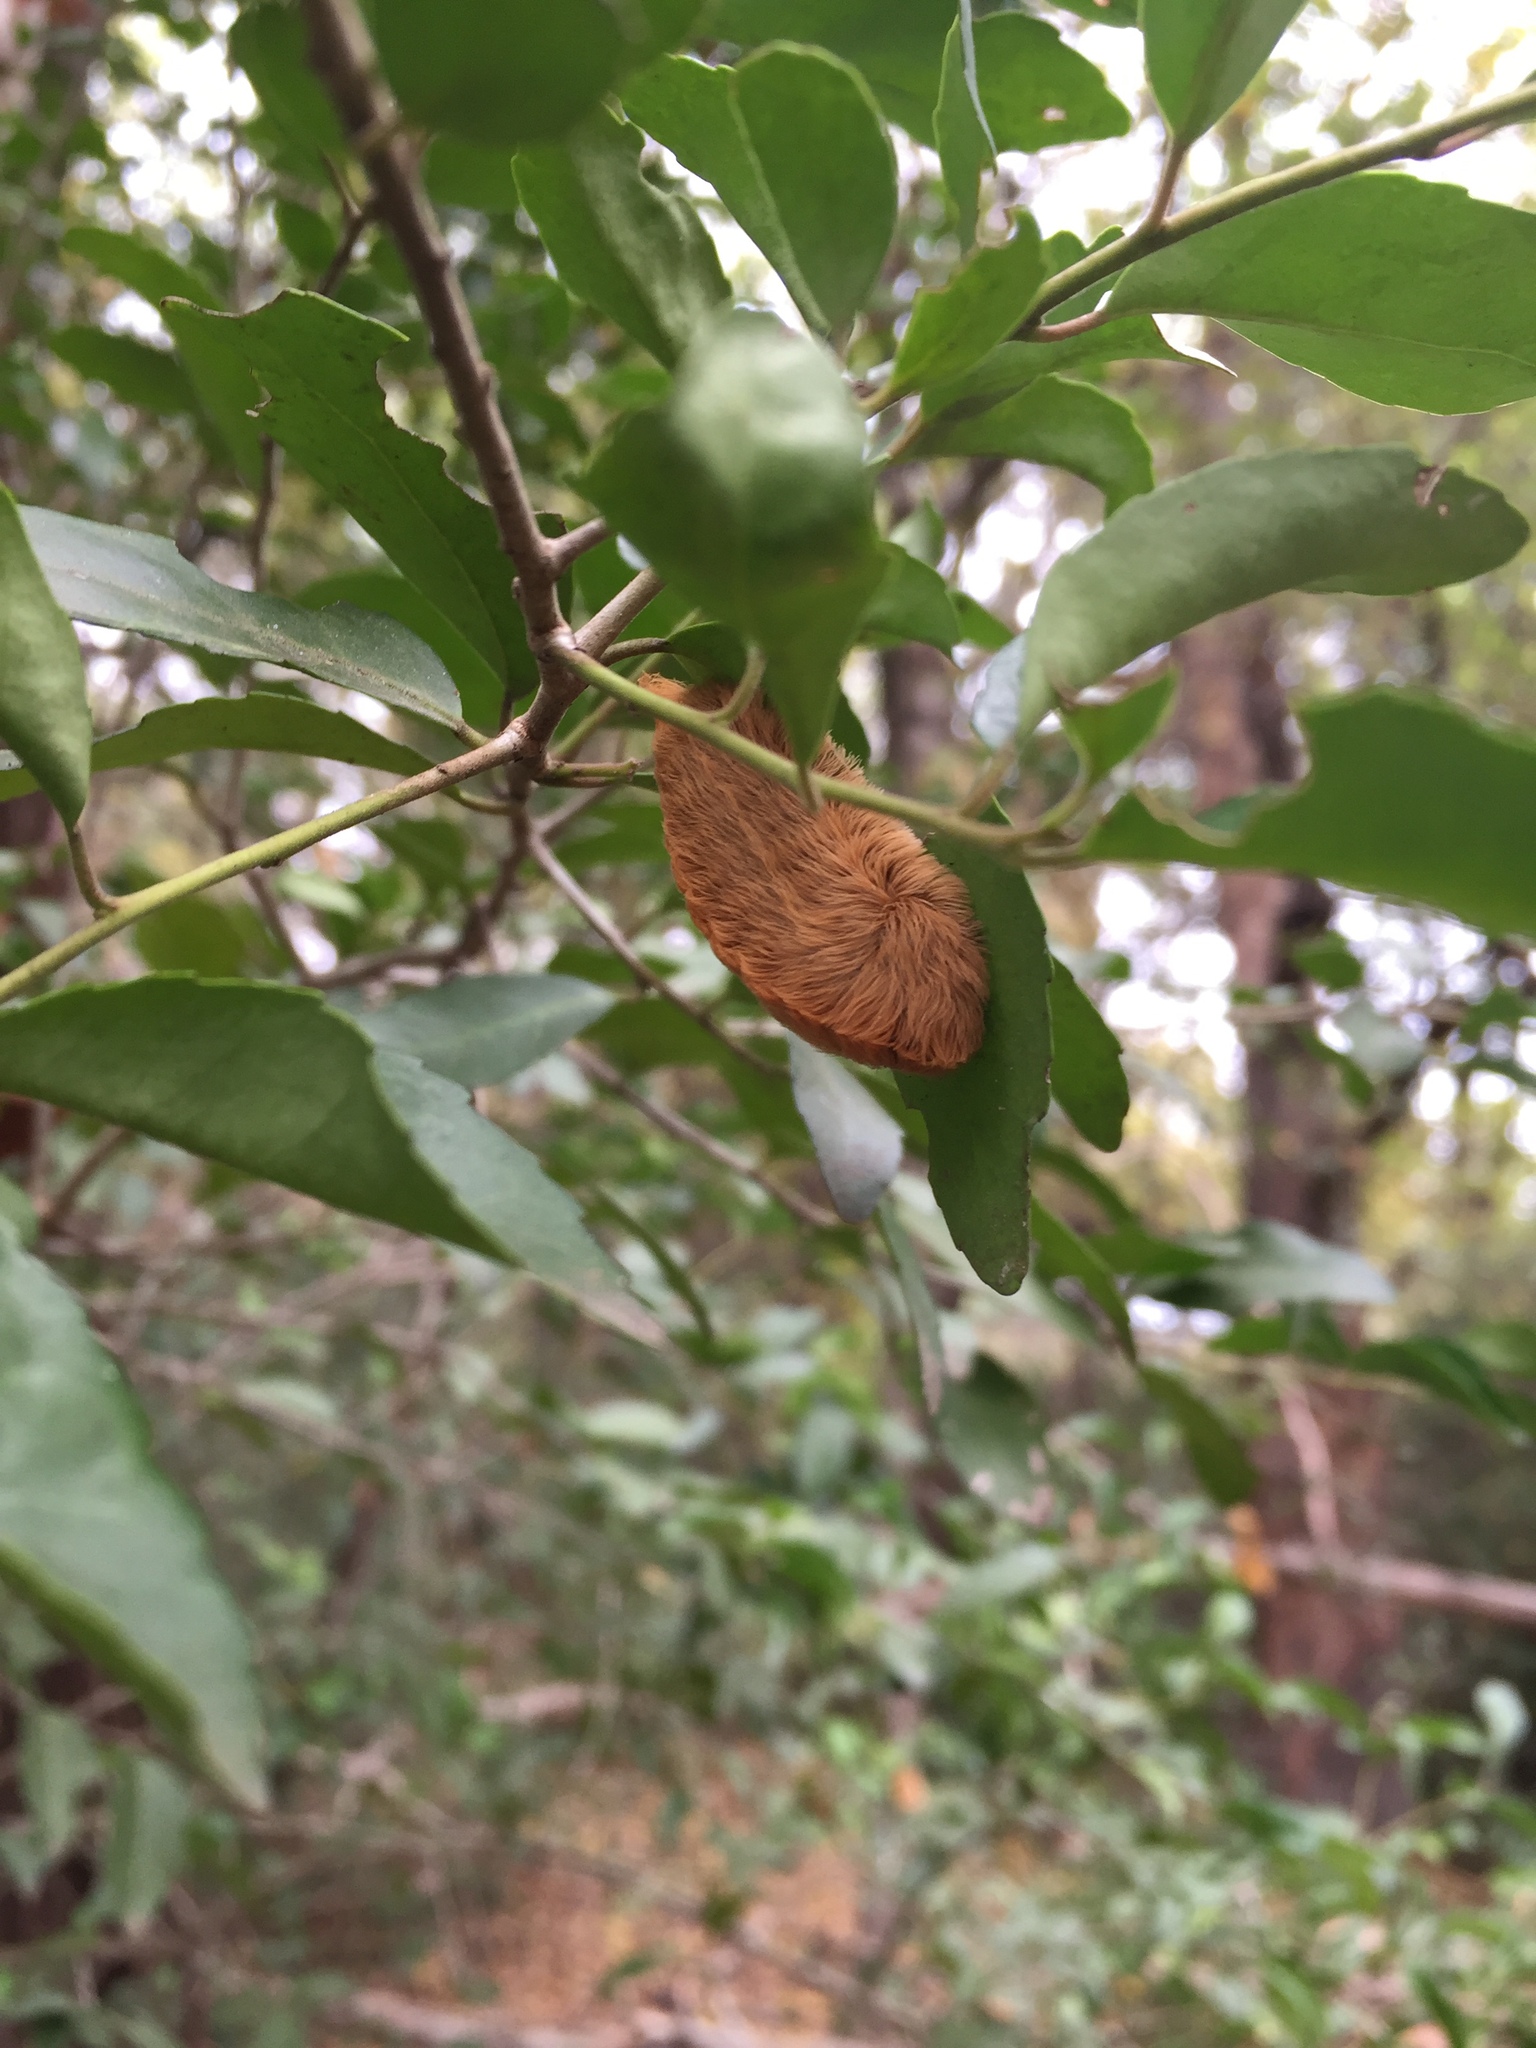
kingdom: Animalia
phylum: Arthropoda
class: Insecta
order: Lepidoptera
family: Megalopygidae
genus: Megalopyge
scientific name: Megalopyge opercularis
